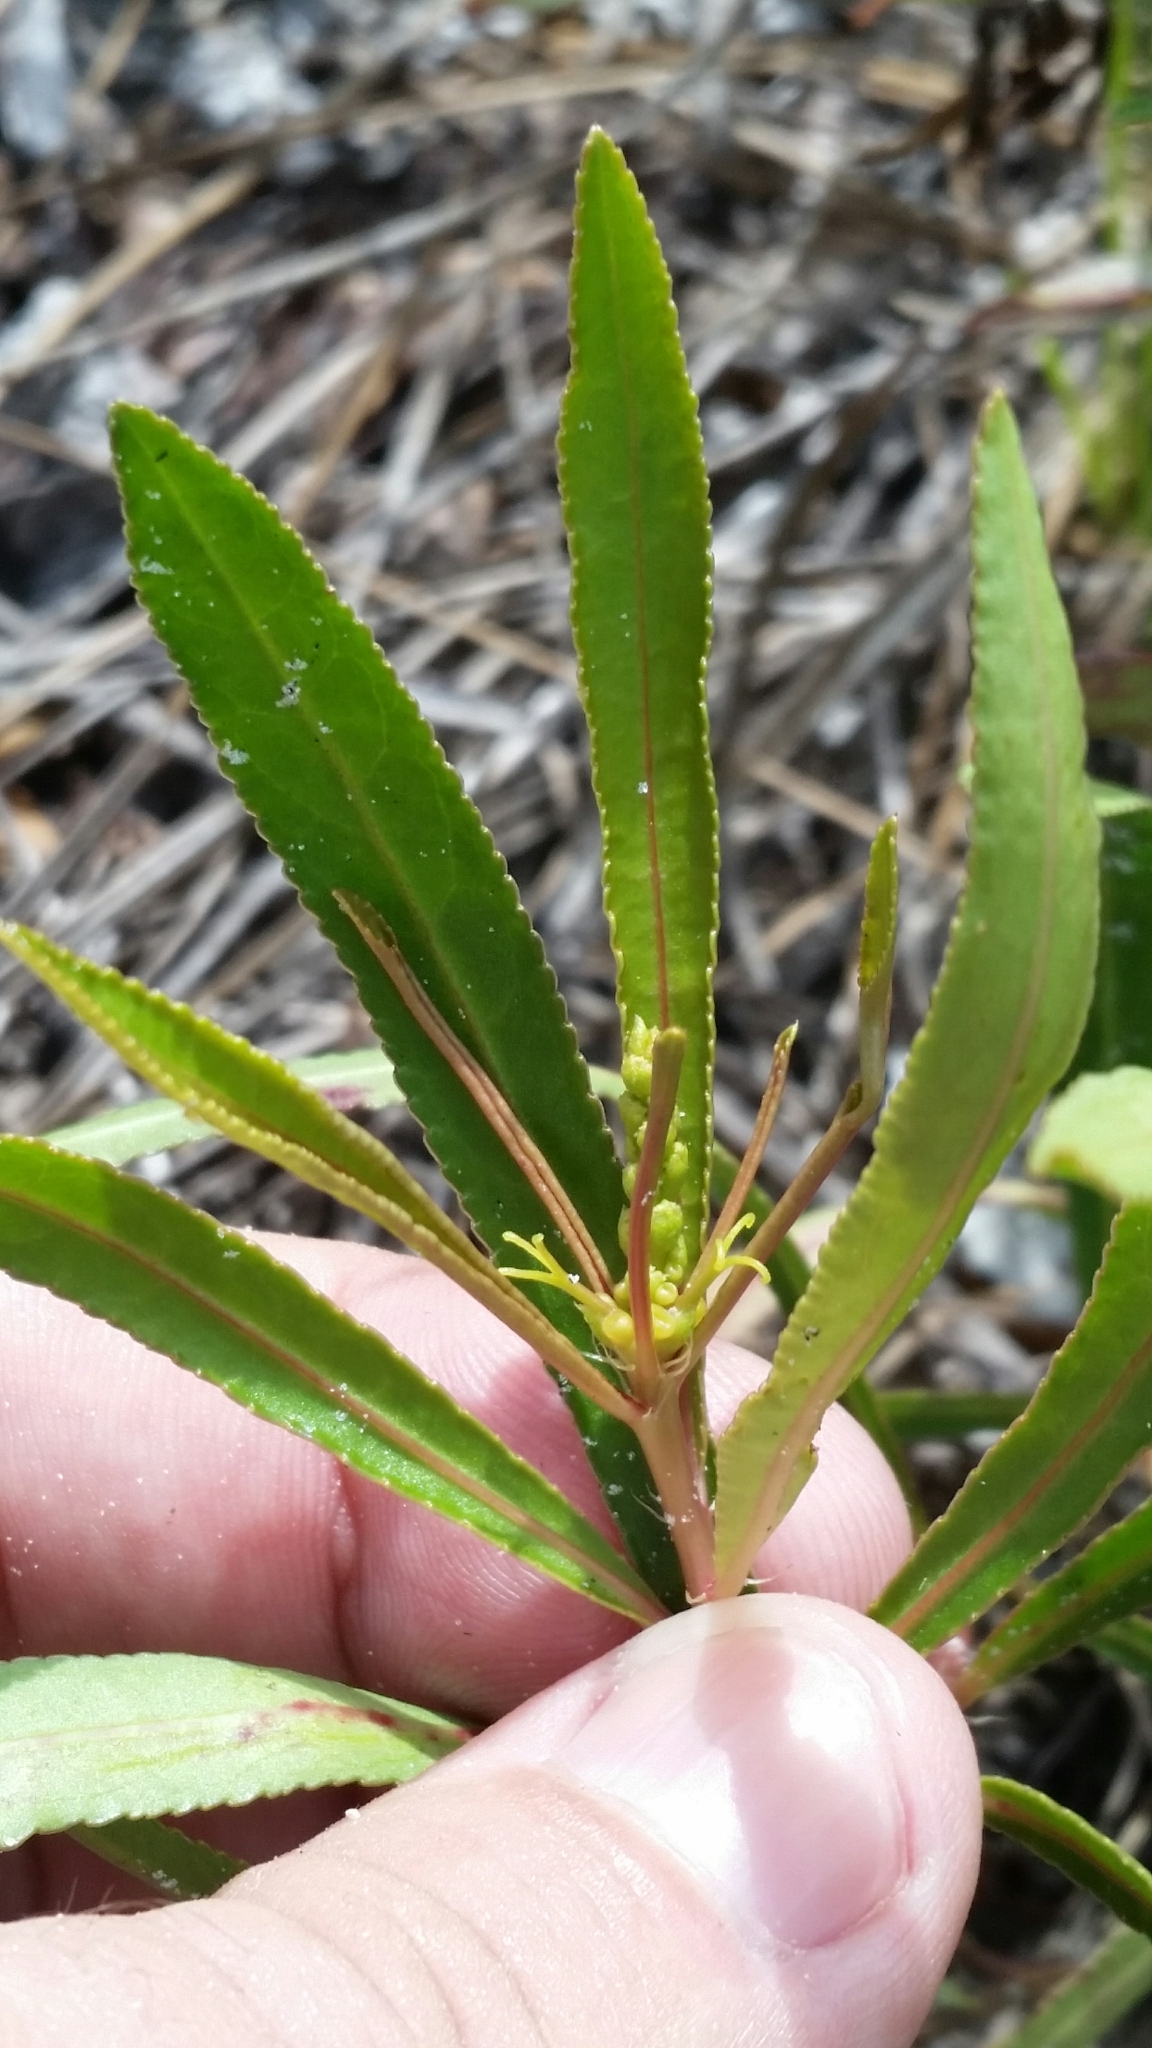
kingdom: Plantae
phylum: Tracheophyta
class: Magnoliopsida
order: Malpighiales
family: Euphorbiaceae
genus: Stillingia
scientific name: Stillingia sylvatica
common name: Queen's-delight
